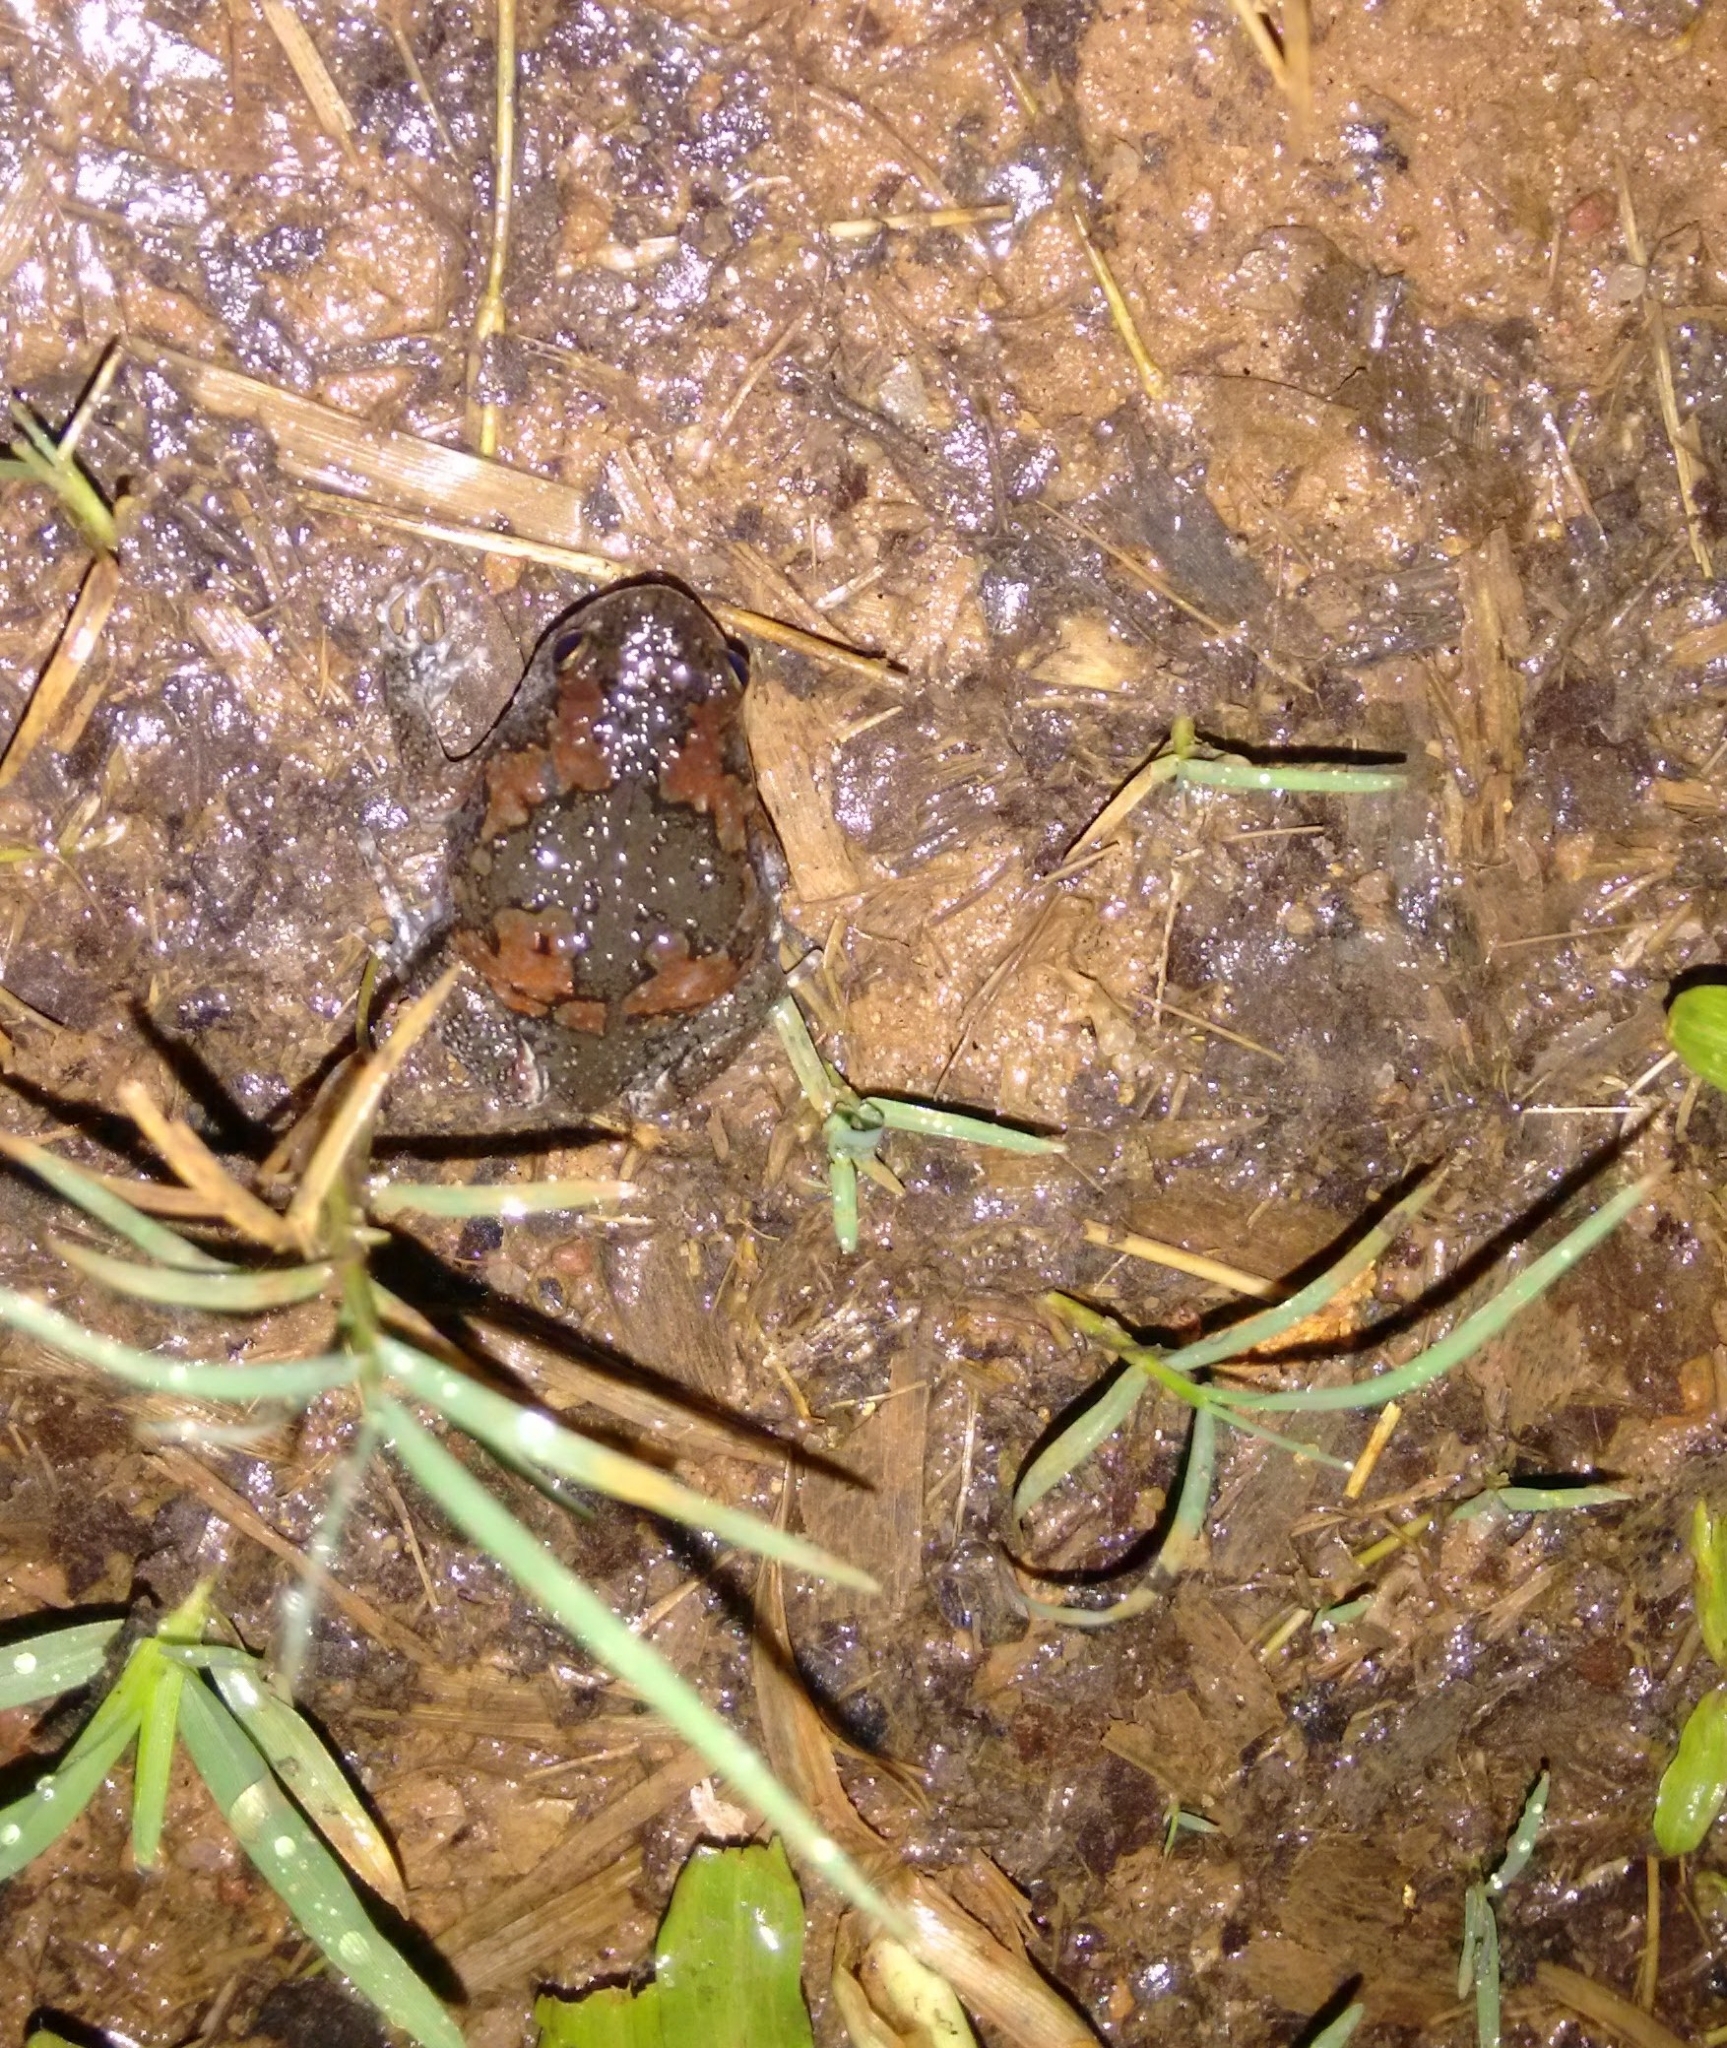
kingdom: Animalia
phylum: Chordata
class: Amphibia
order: Anura
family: Microhylidae
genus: Uperodon
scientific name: Uperodon taprobanicus
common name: Ceylon kaloula
